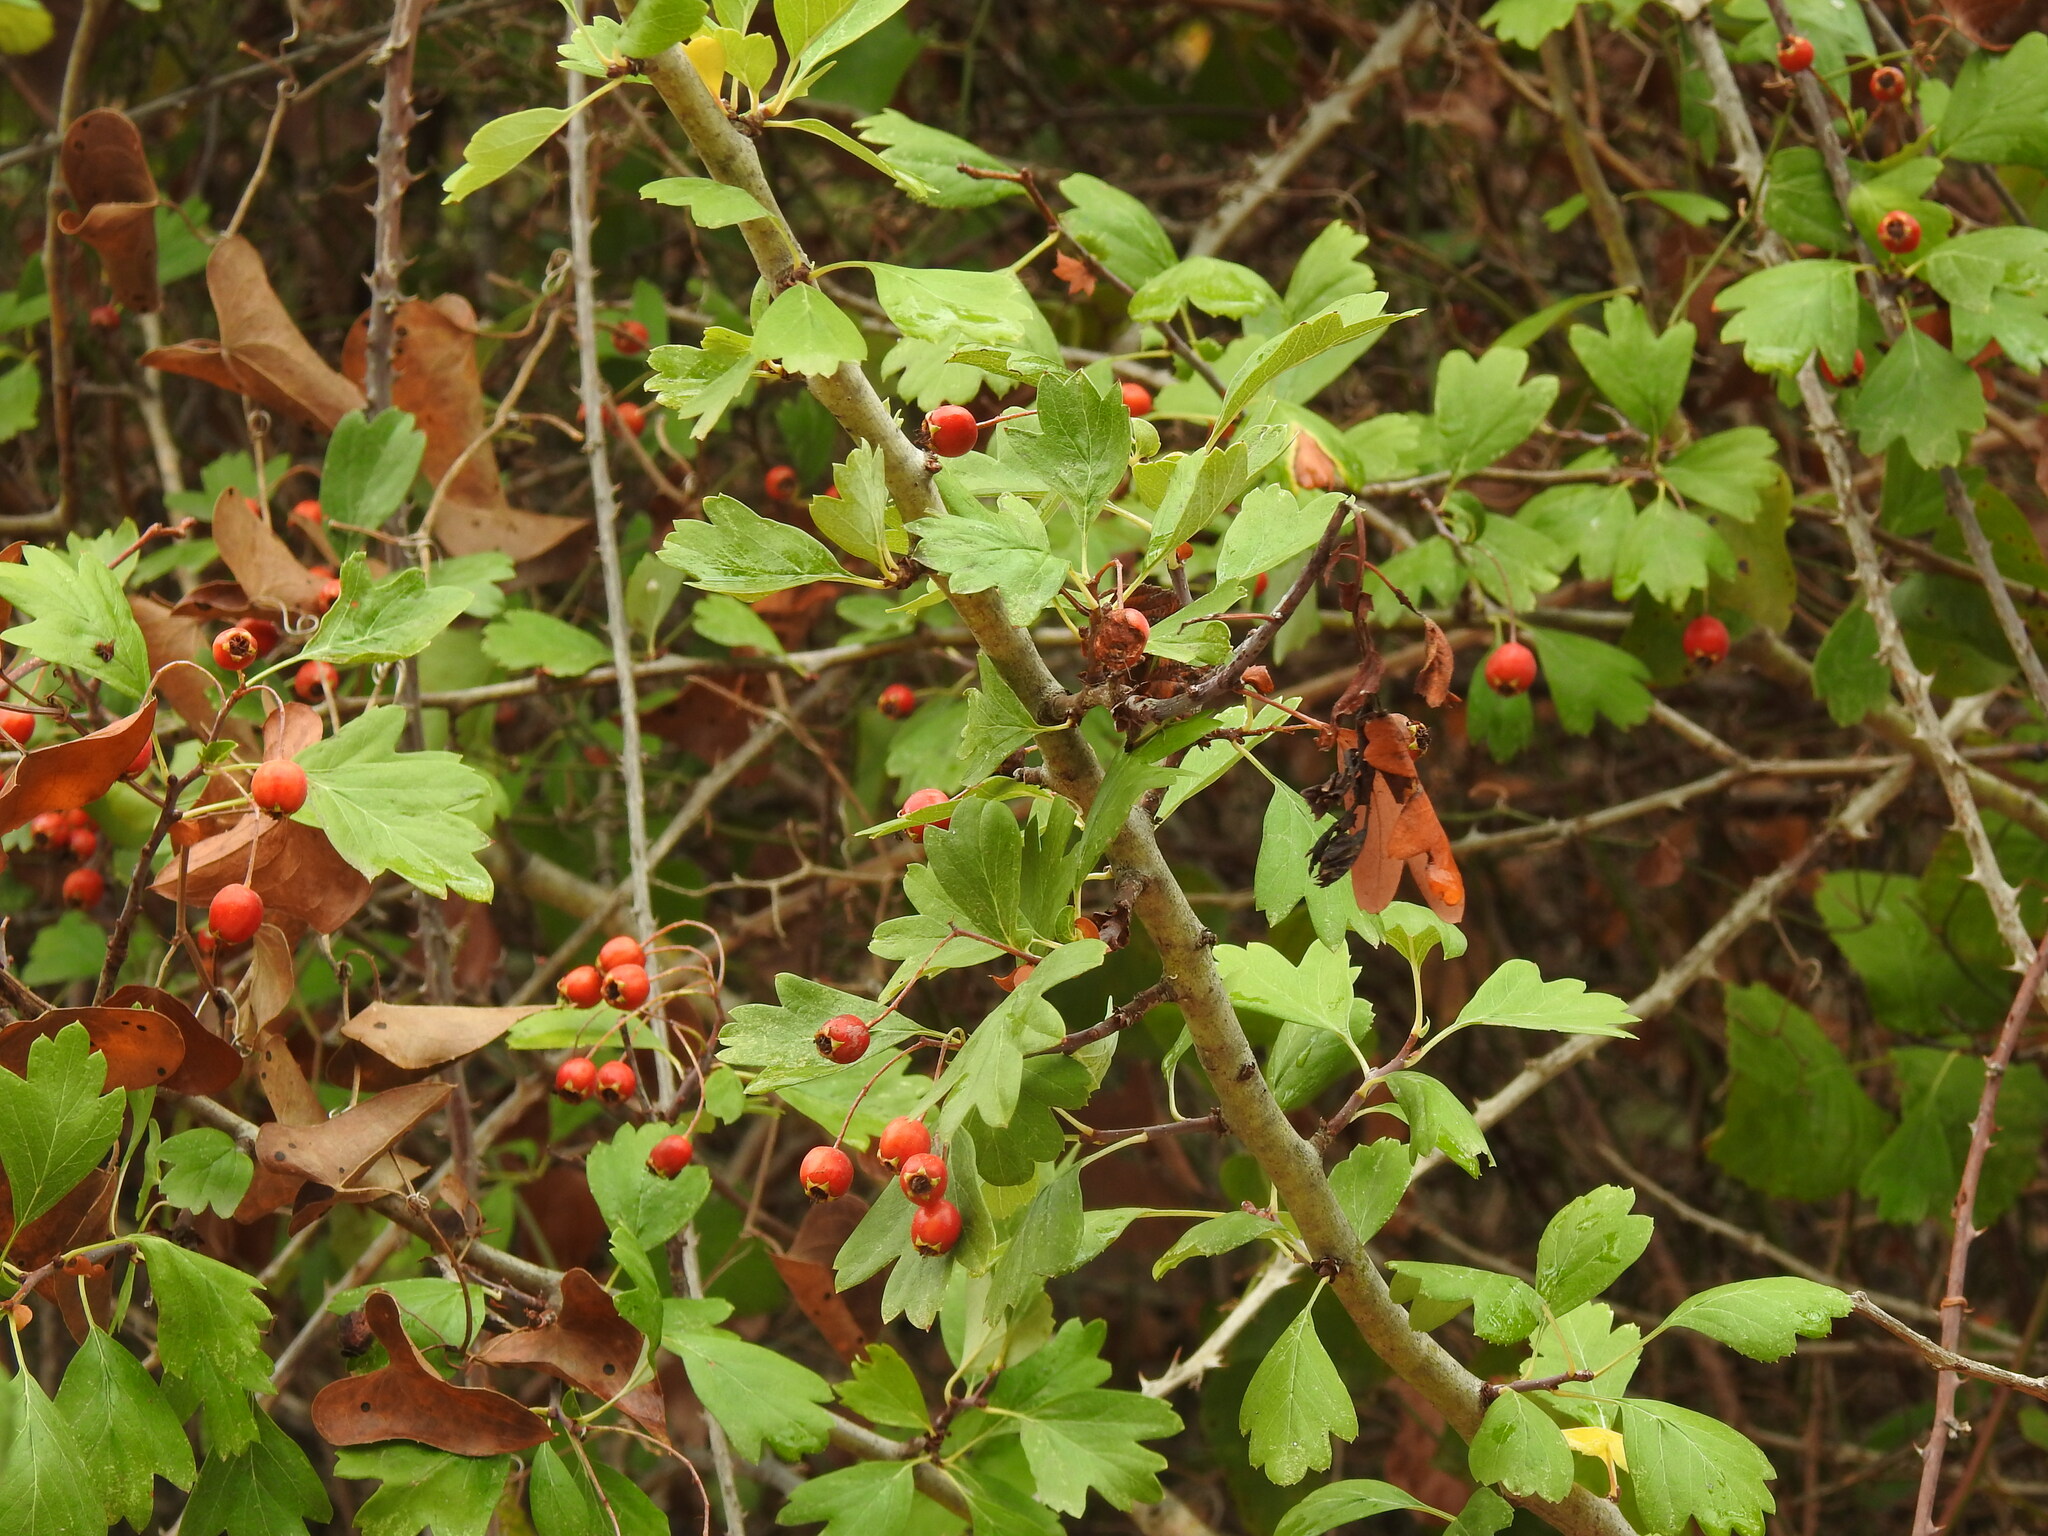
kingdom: Plantae
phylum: Tracheophyta
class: Magnoliopsida
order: Rosales
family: Rosaceae
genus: Crataegus
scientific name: Crataegus monogyna
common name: Hawthorn
